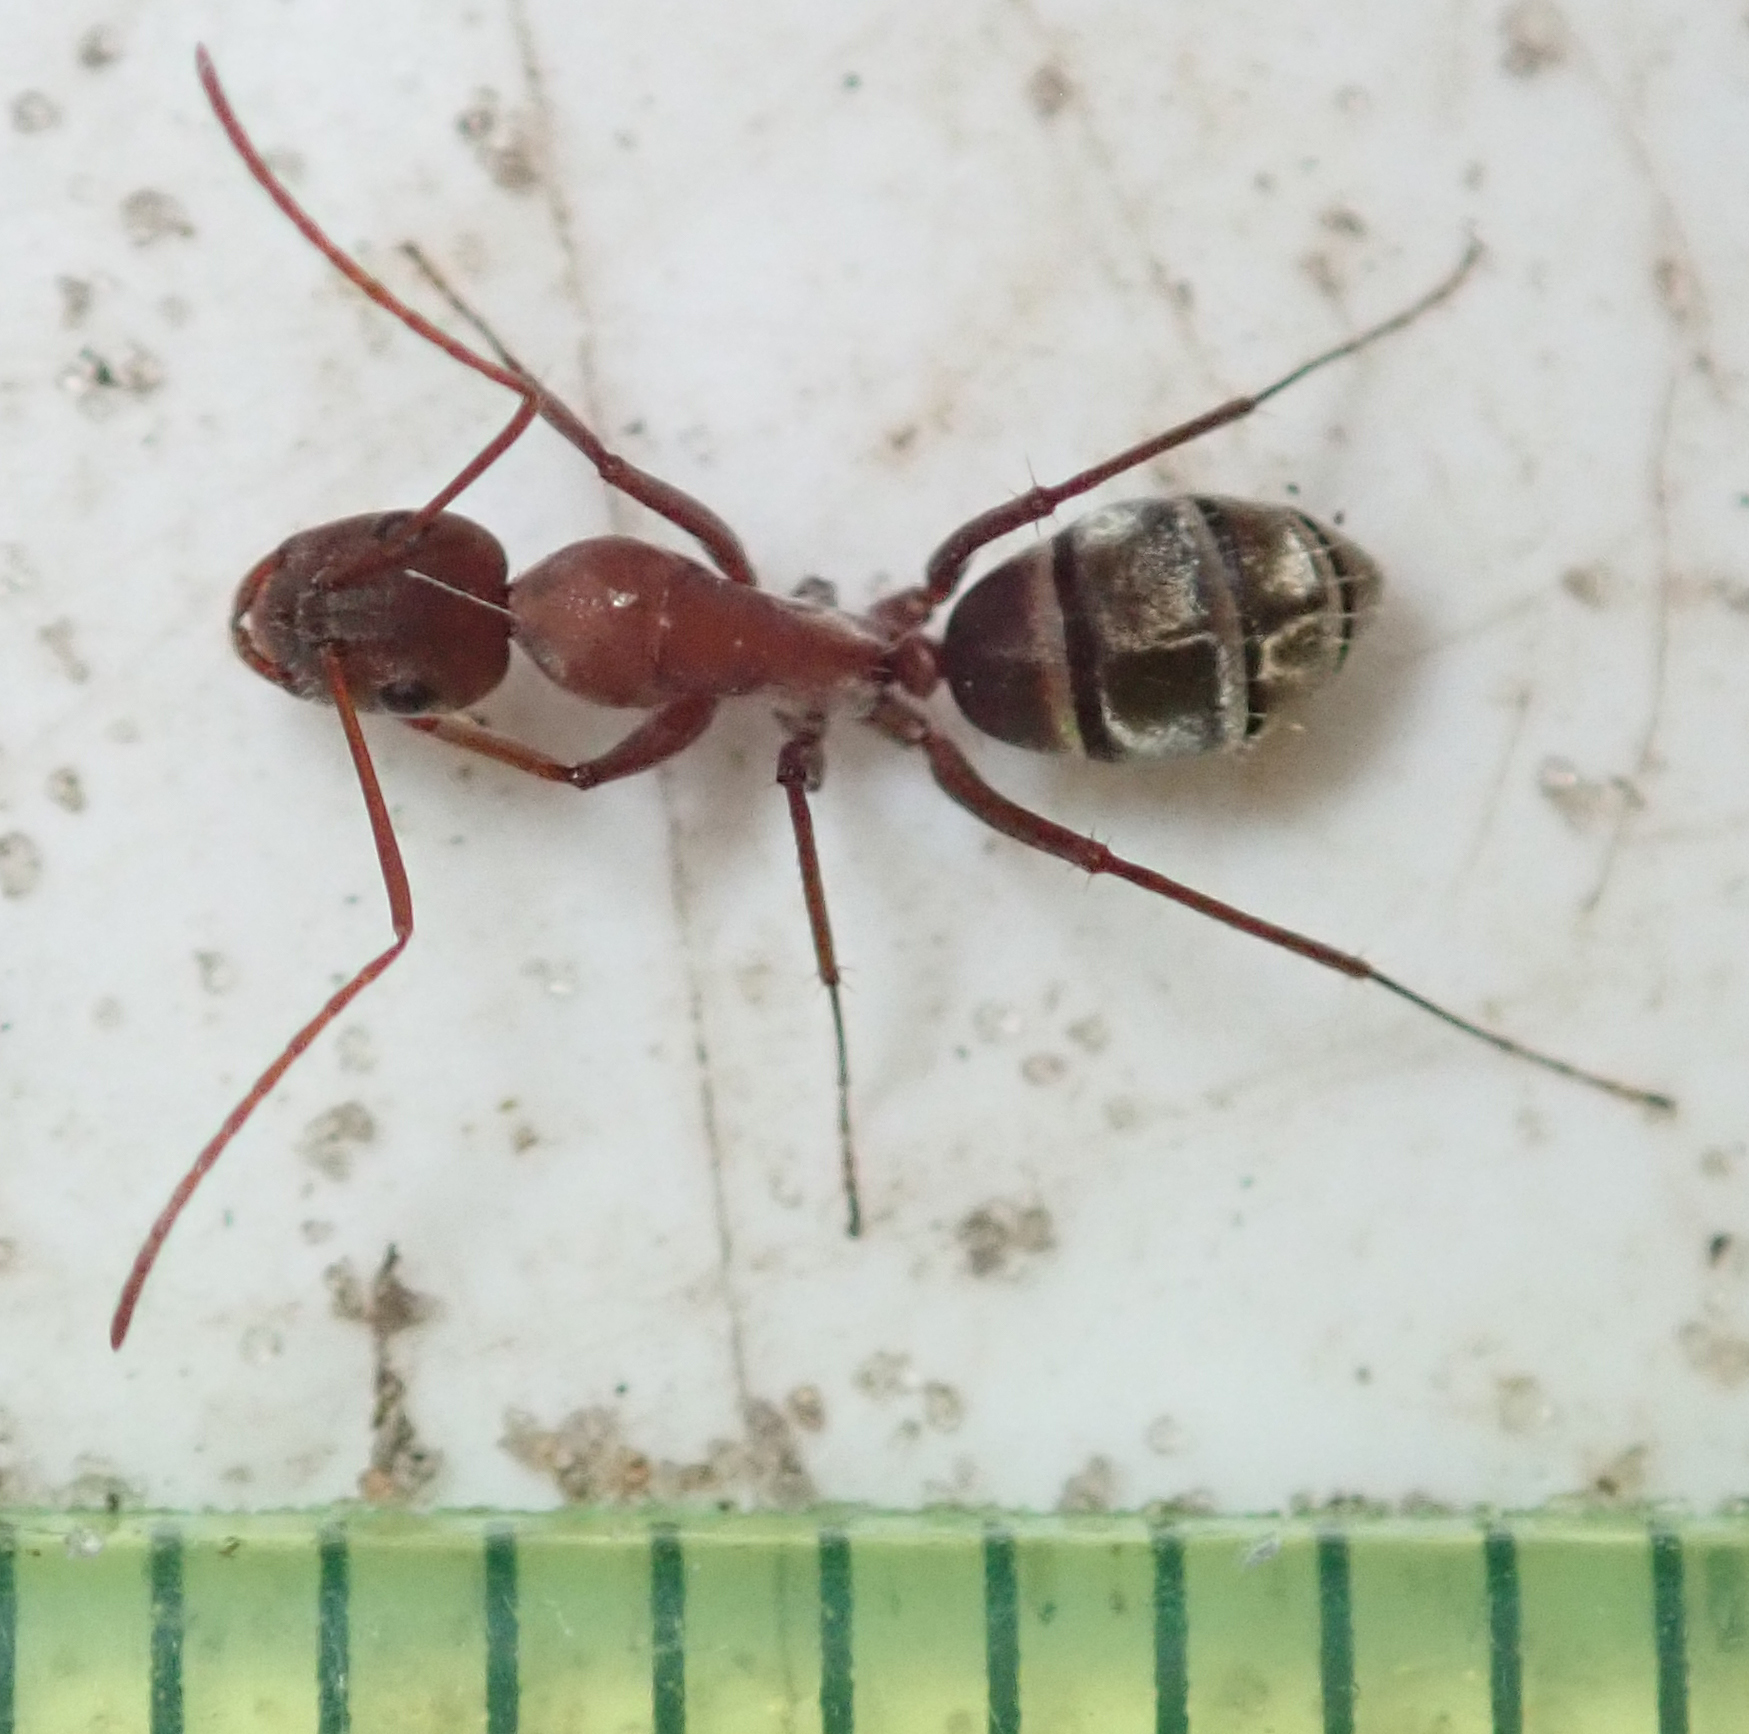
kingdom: Animalia
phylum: Arthropoda
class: Insecta
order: Hymenoptera
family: Formicidae
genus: Camponotus
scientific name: Camponotus vestitus
